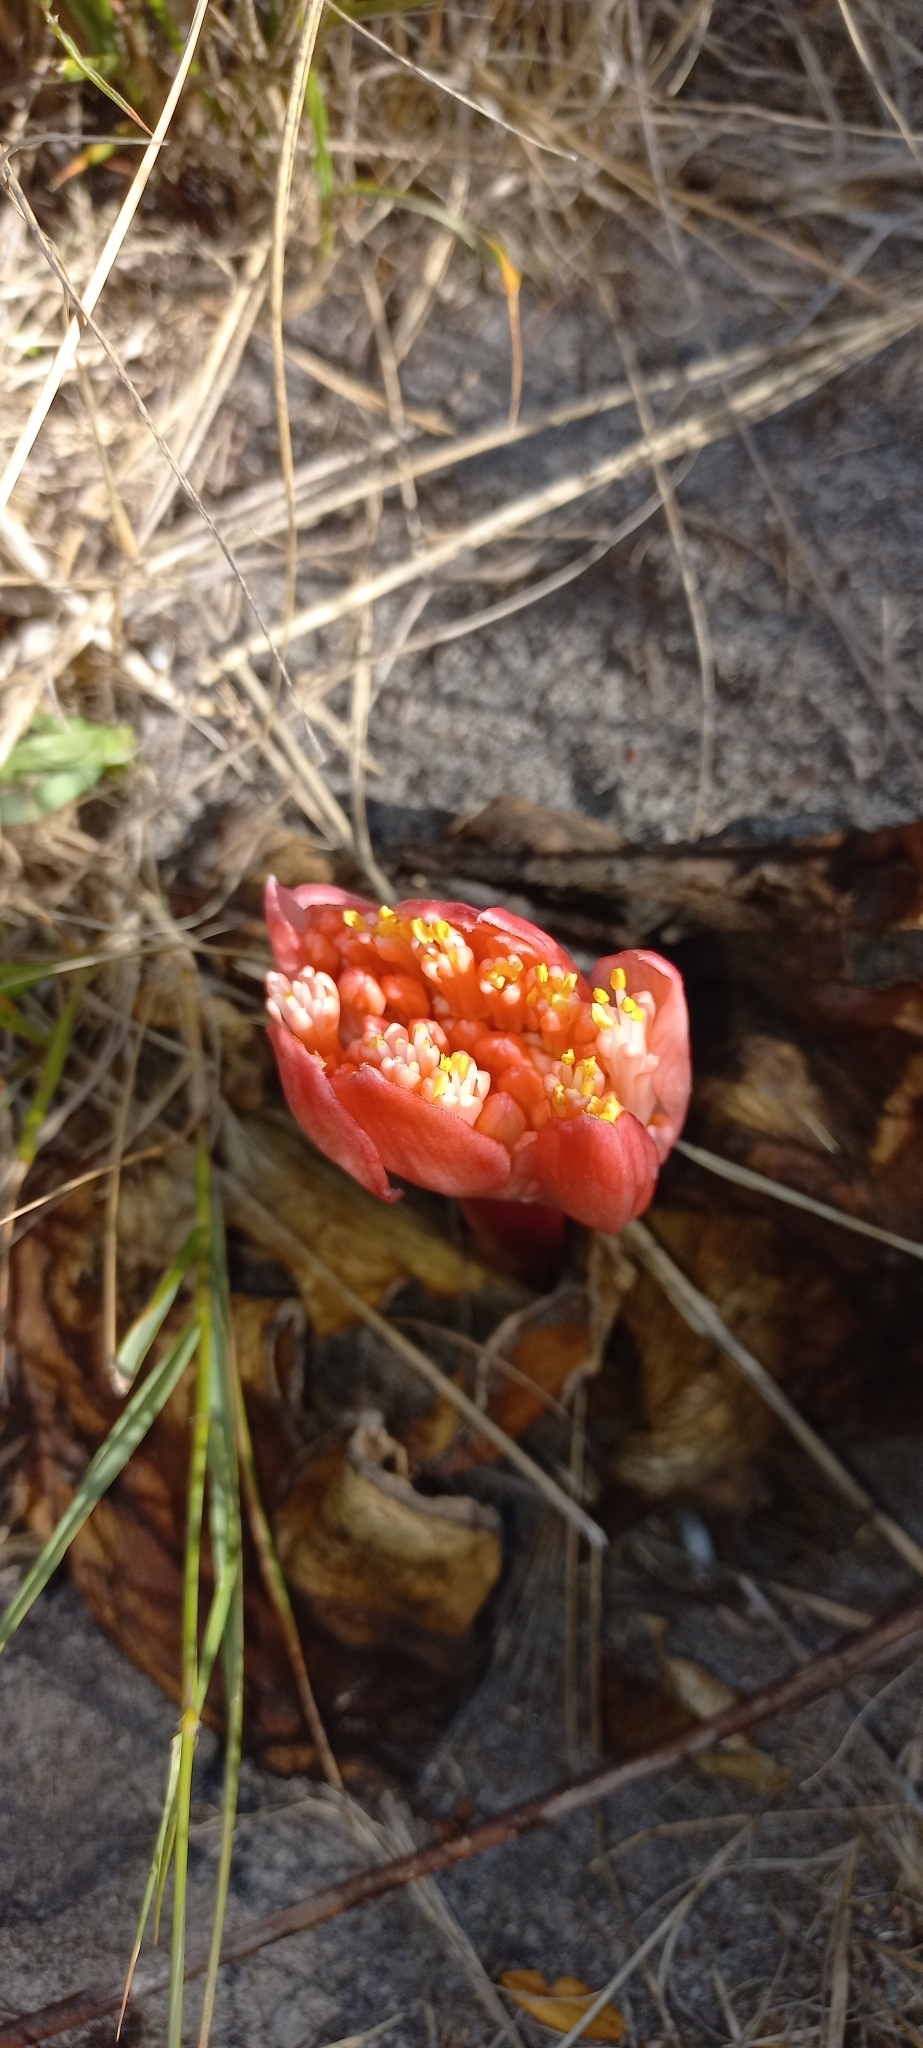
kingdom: Plantae
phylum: Tracheophyta
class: Liliopsida
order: Asparagales
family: Amaryllidaceae
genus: Haemanthus
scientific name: Haemanthus sanguineus
